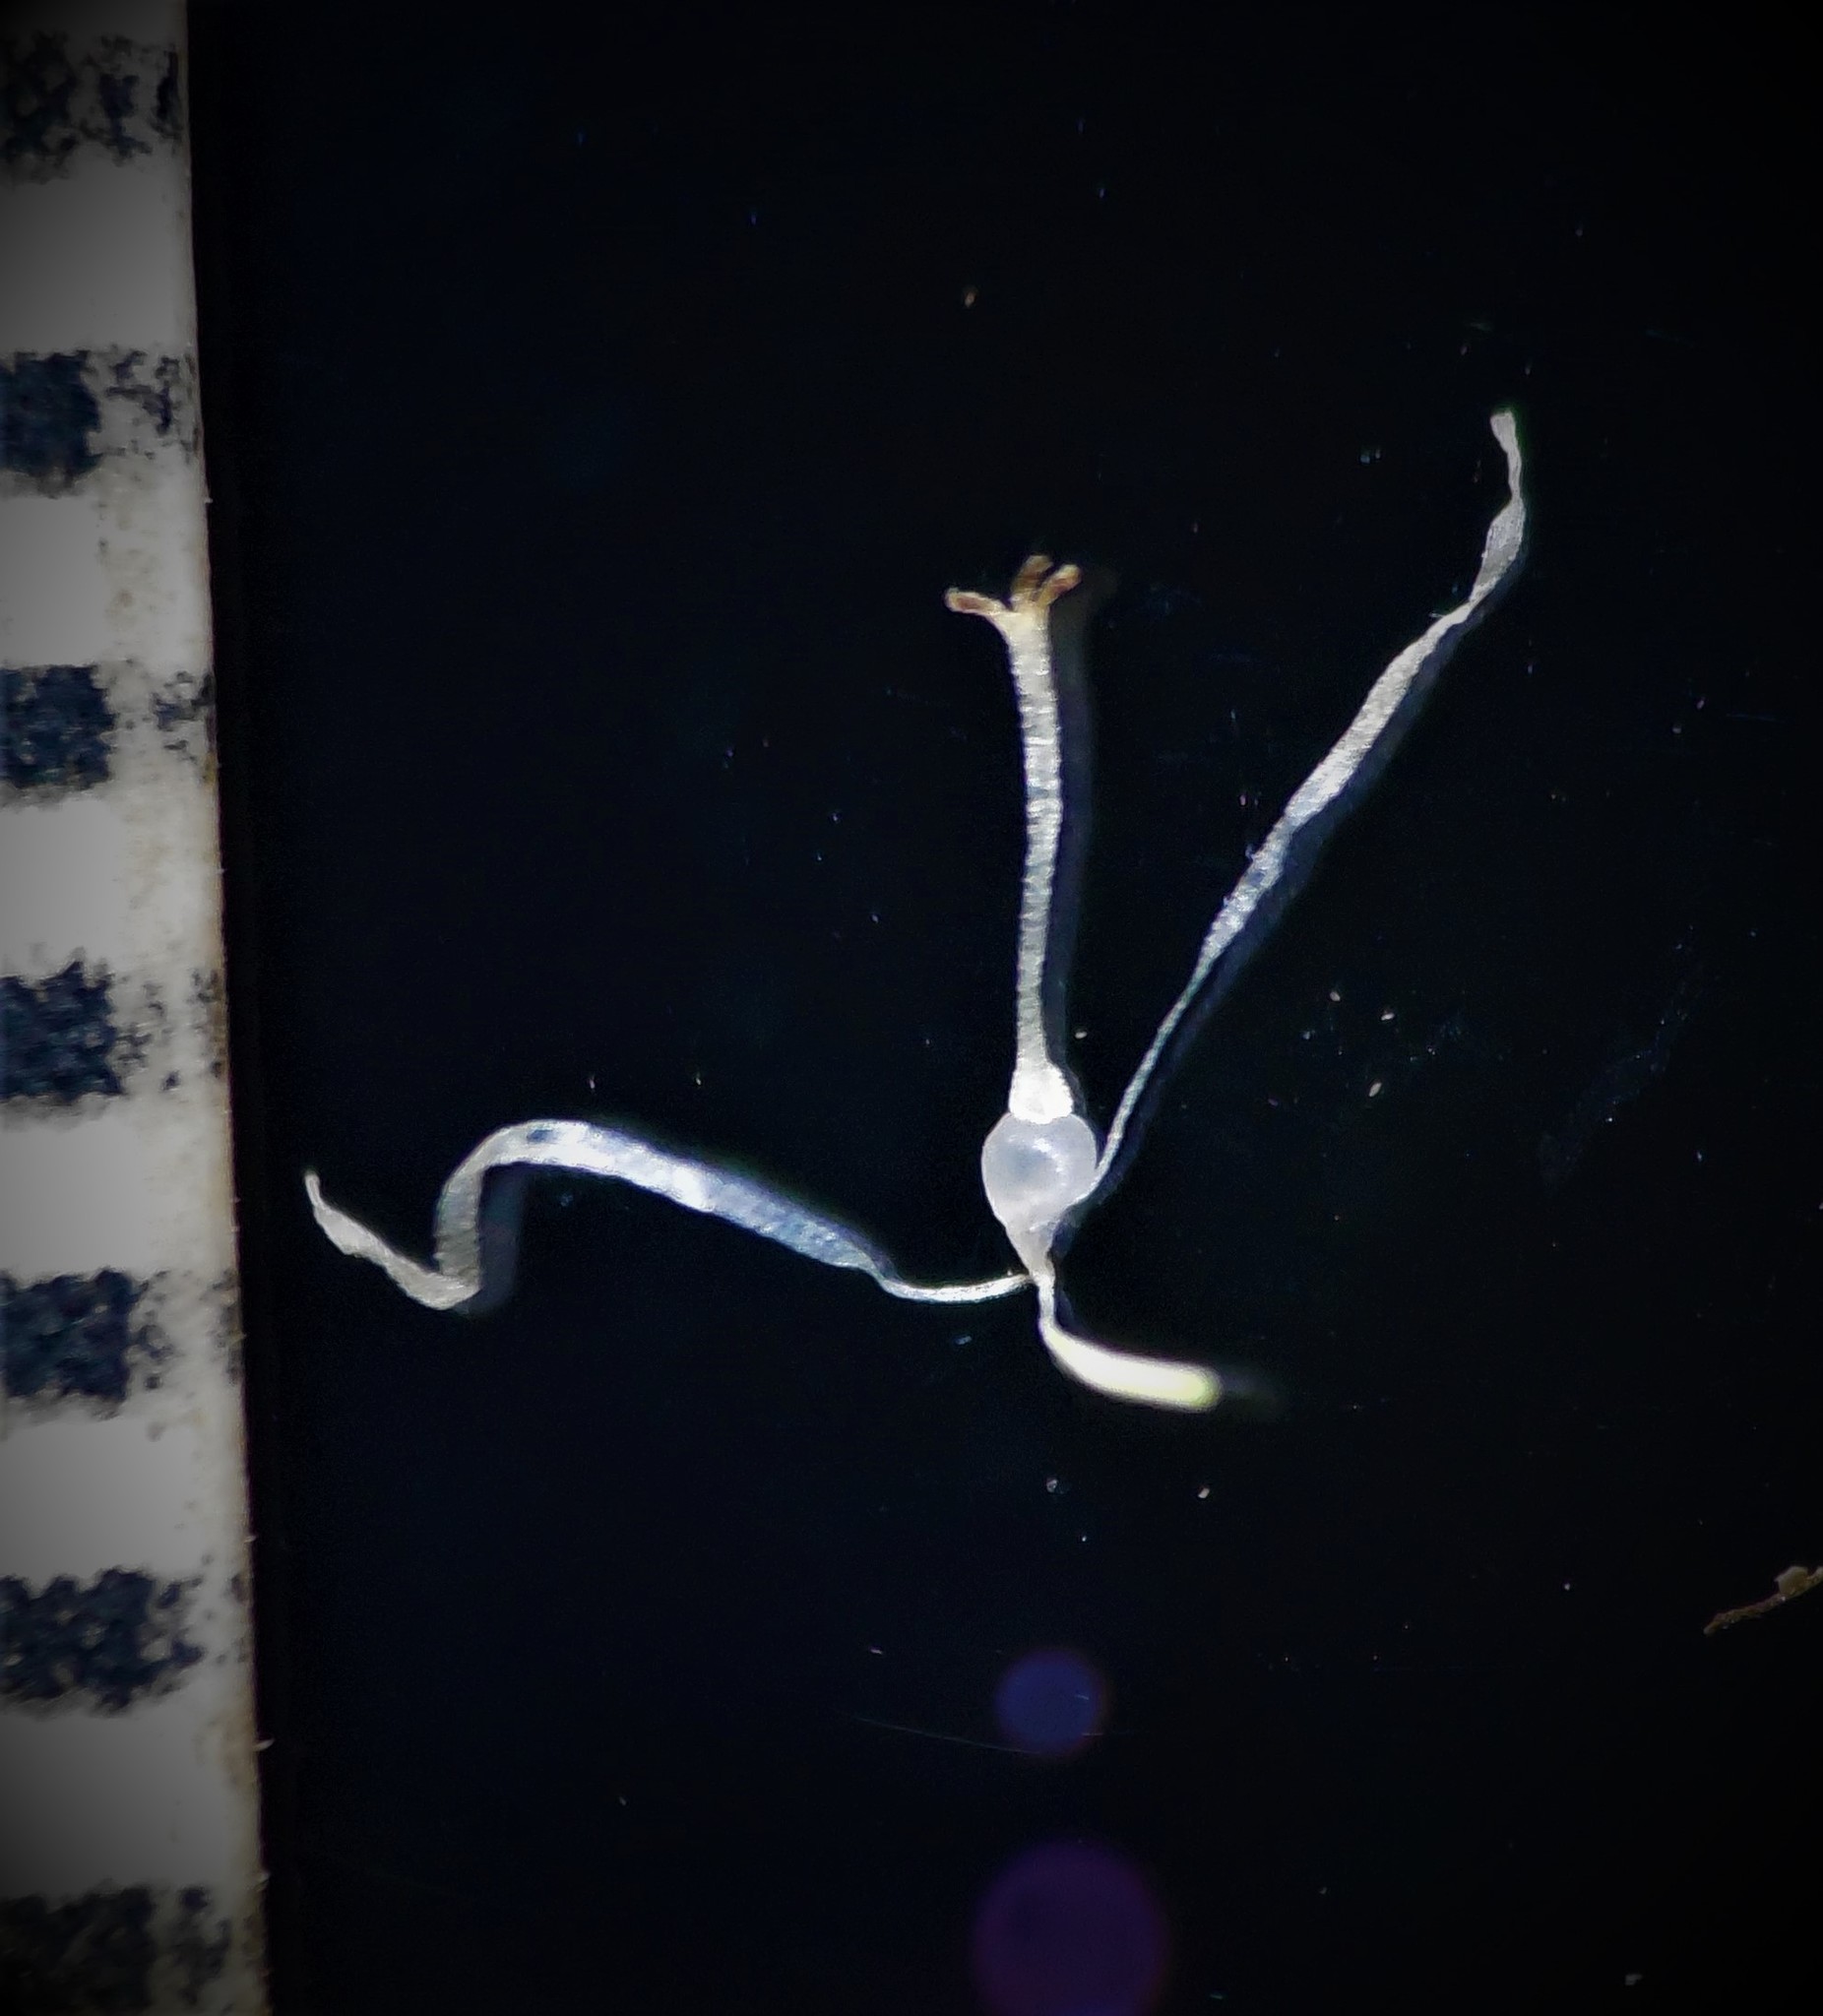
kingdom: Plantae
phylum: Tracheophyta
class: Liliopsida
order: Poales
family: Cyperaceae
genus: Fimbristylis
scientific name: Fimbristylis lawiana
